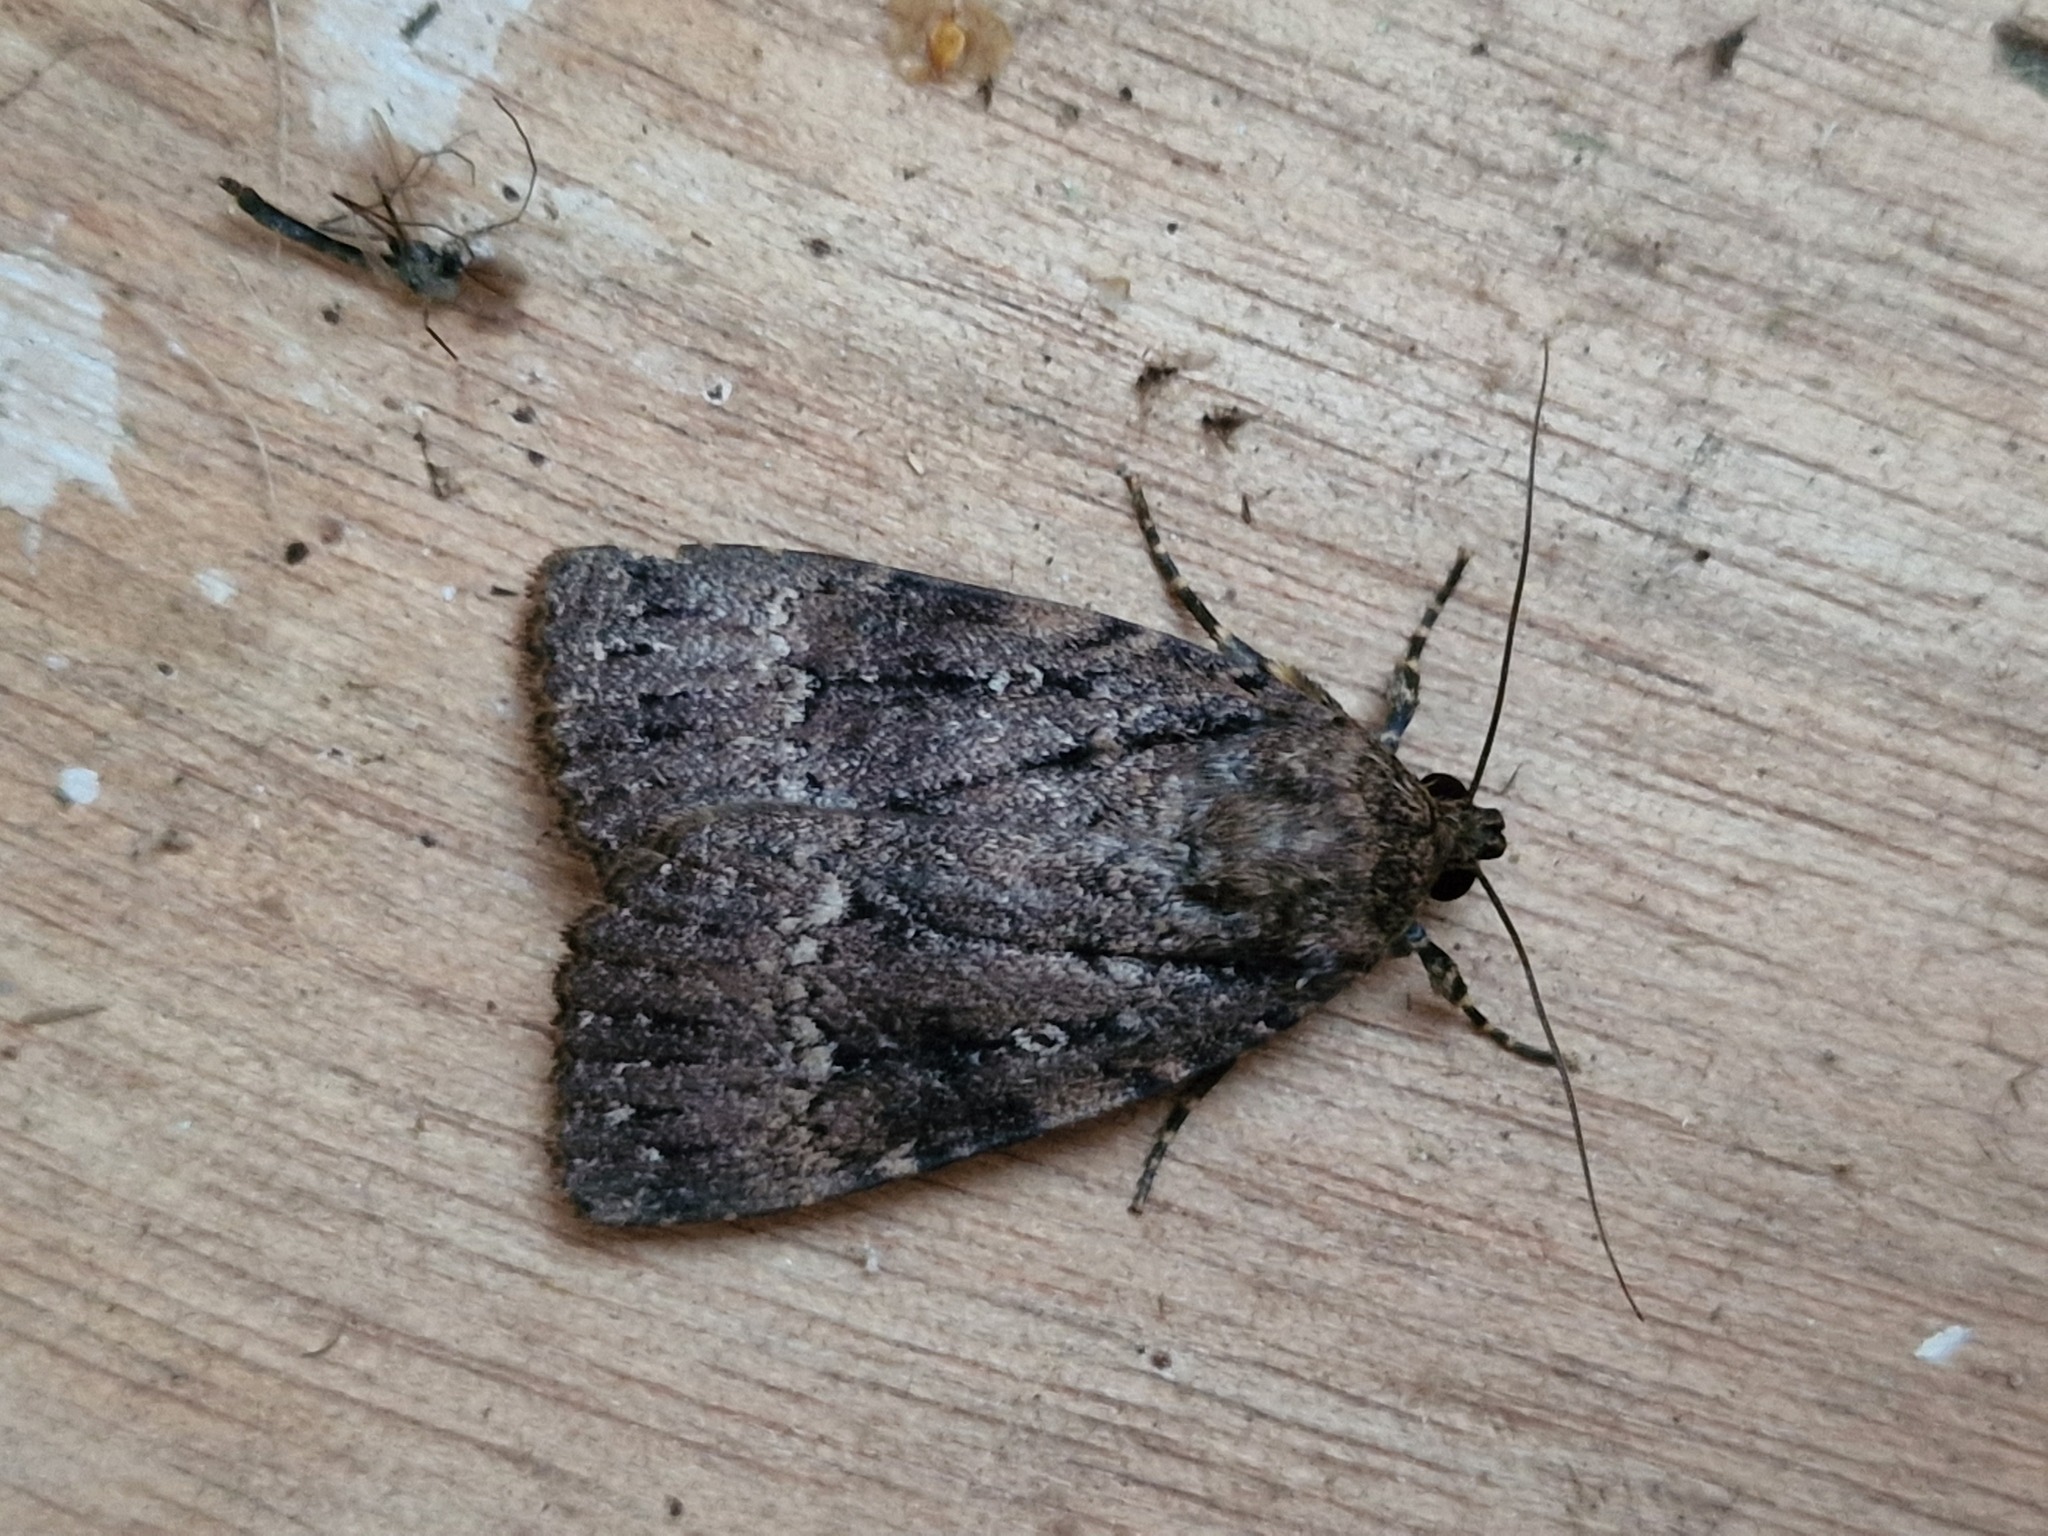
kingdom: Animalia
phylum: Arthropoda
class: Insecta
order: Lepidoptera
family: Noctuidae
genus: Amphipyra
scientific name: Amphipyra pyramidea
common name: Copper underwing
